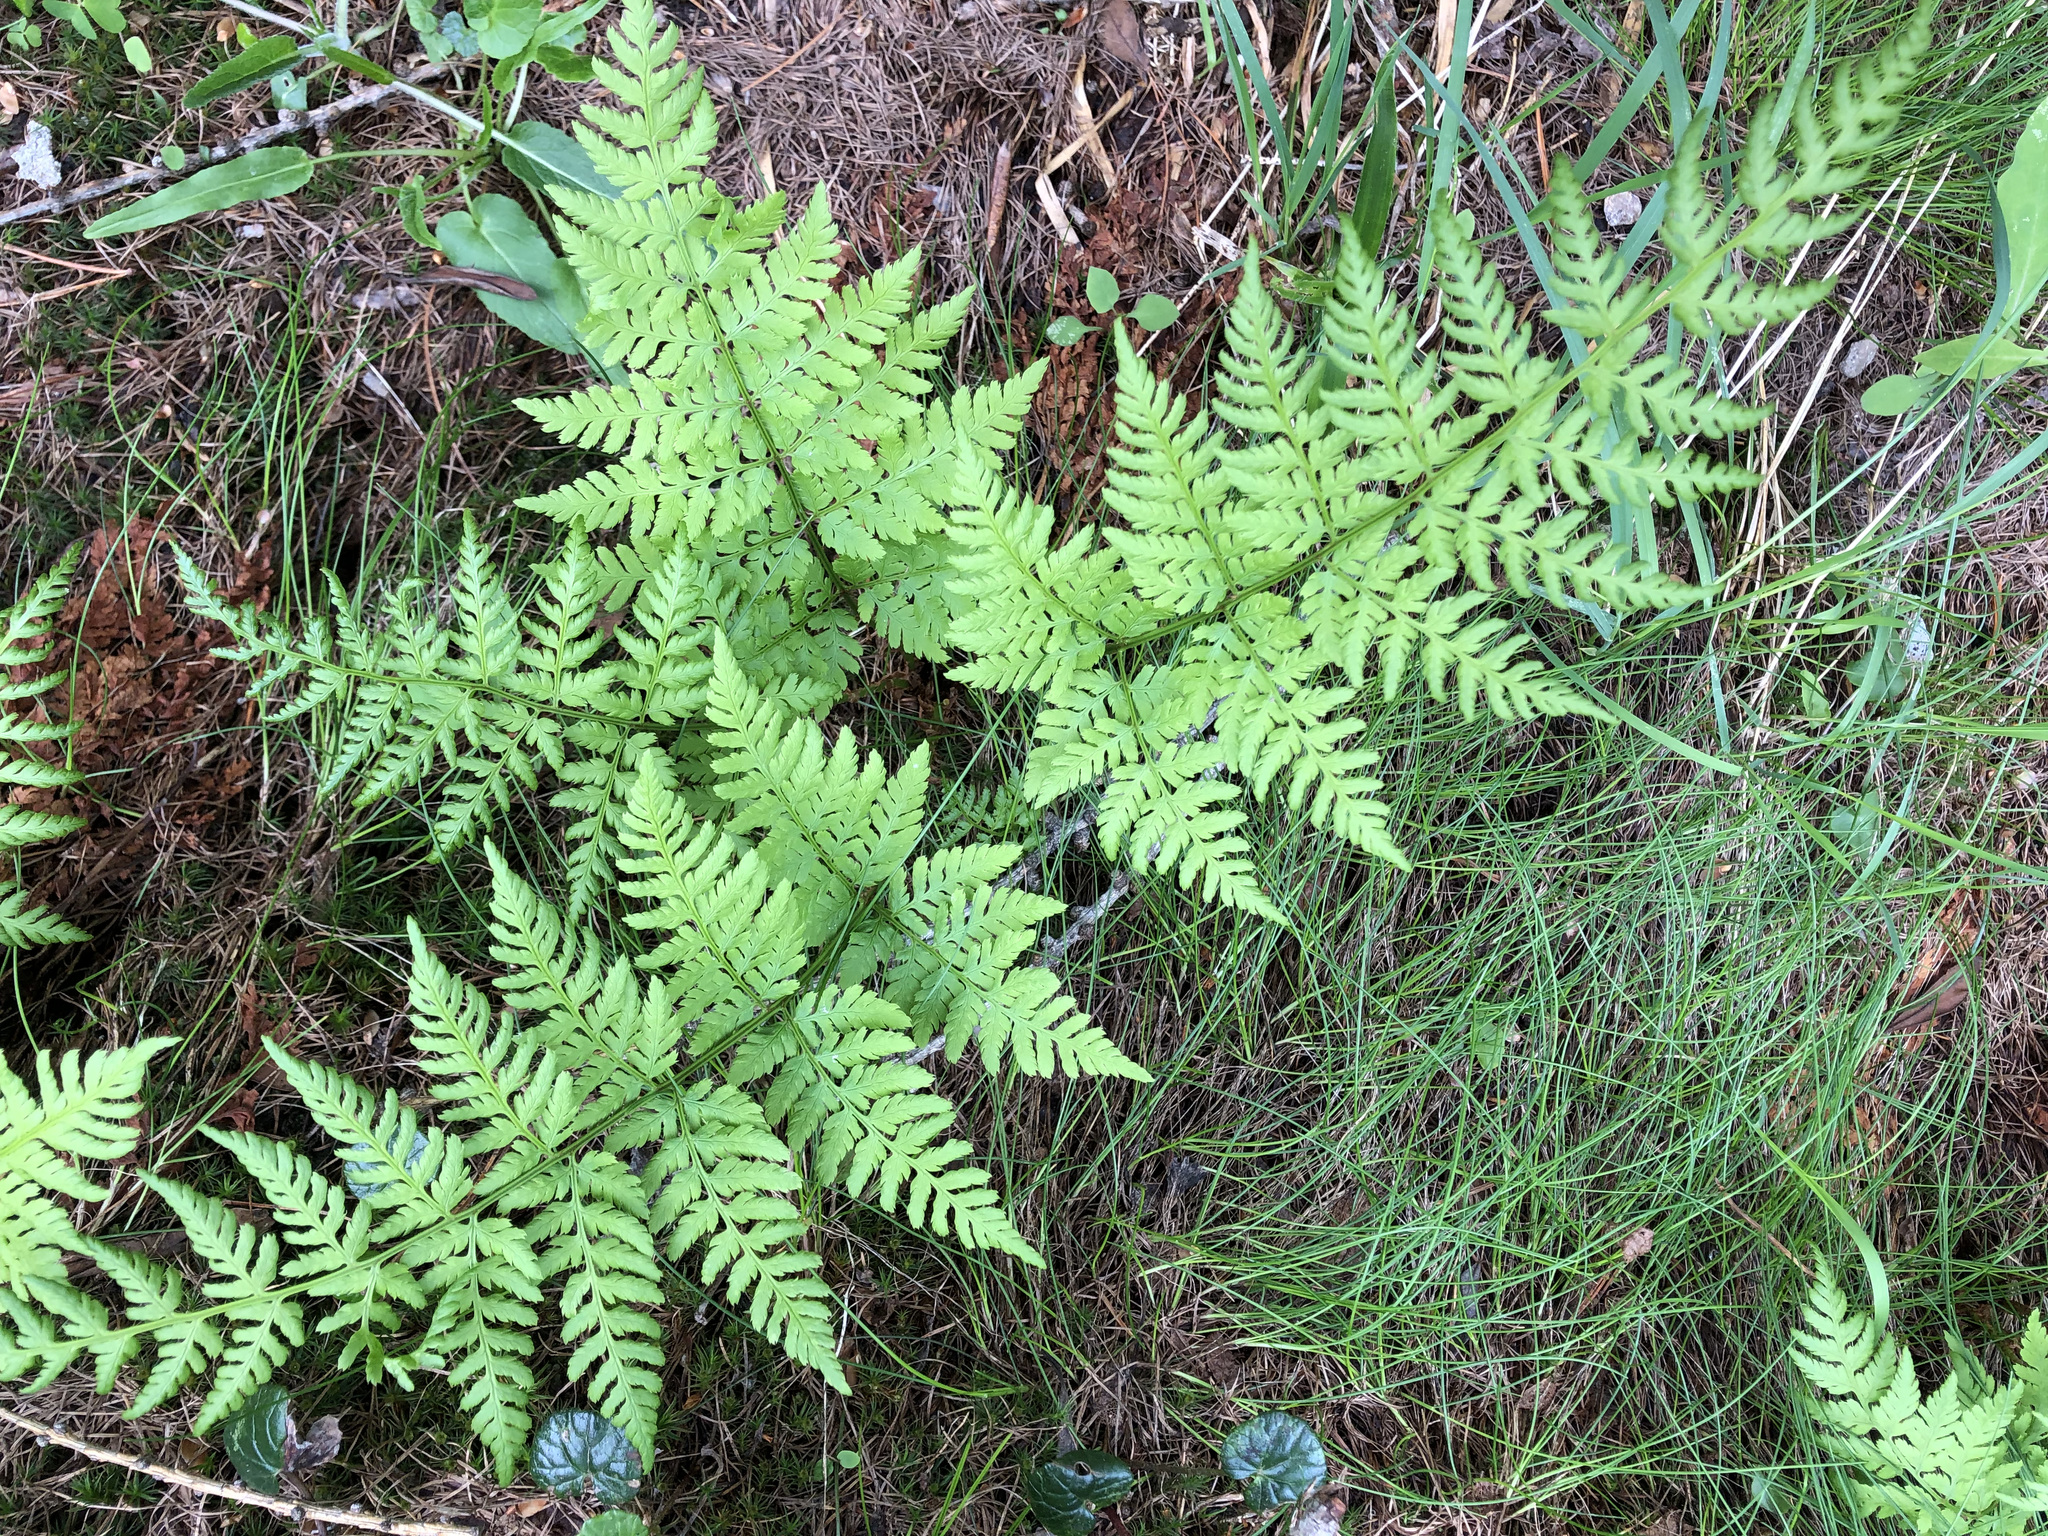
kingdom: Plantae
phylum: Tracheophyta
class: Polypodiopsida
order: Polypodiales
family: Dryopteridaceae
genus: Dryopteris
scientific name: Dryopteris expansa
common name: Northern buckler fern
